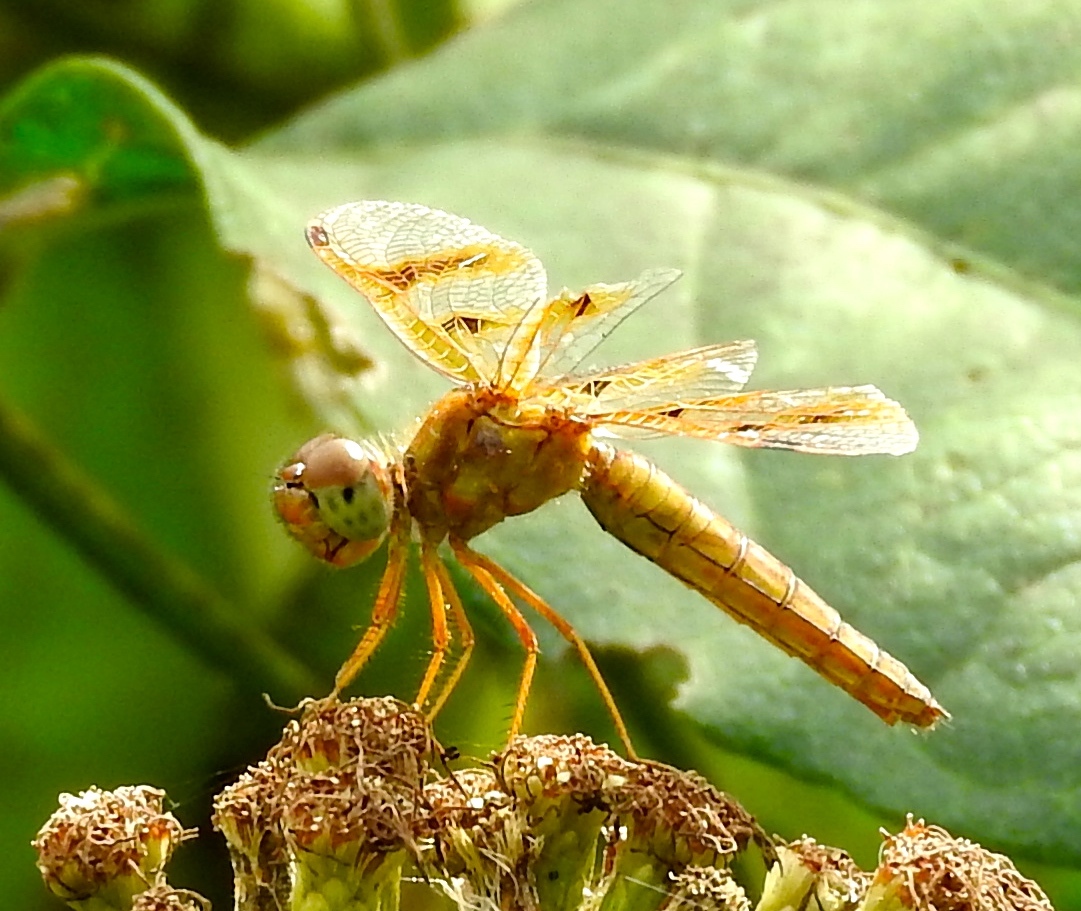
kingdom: Animalia
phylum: Arthropoda
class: Insecta
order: Odonata
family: Libellulidae
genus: Perithemis
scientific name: Perithemis
